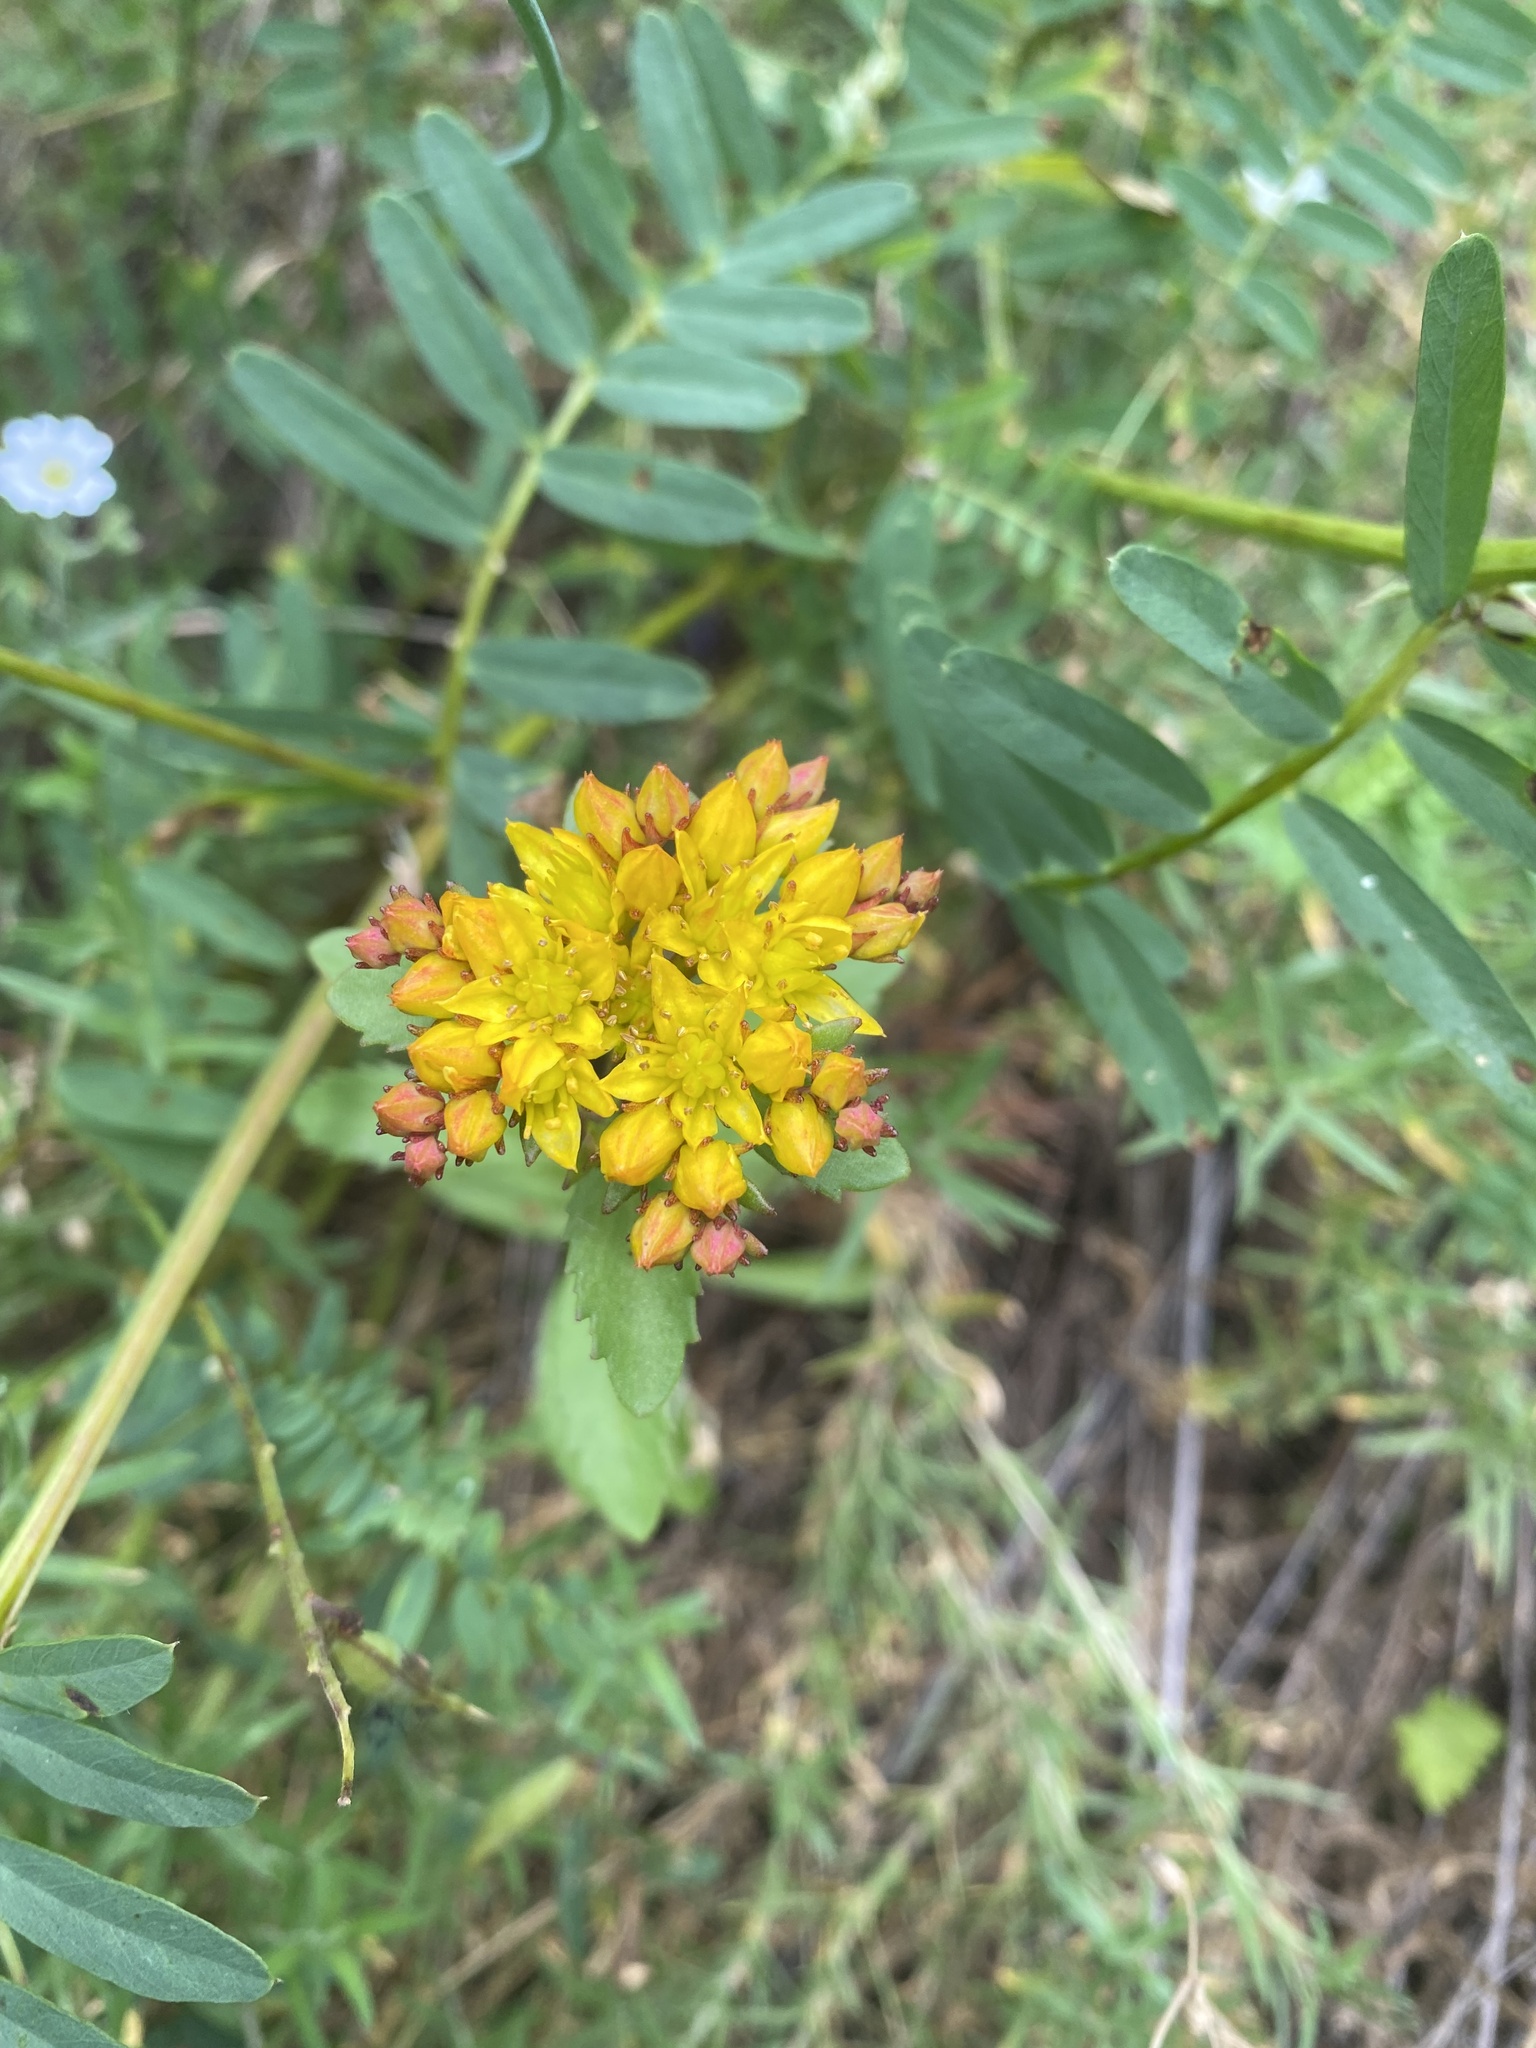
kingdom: Plantae
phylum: Tracheophyta
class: Magnoliopsida
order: Saxifragales
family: Crassulaceae
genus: Phedimus
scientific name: Phedimus aizoon
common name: Orpin aizoon
